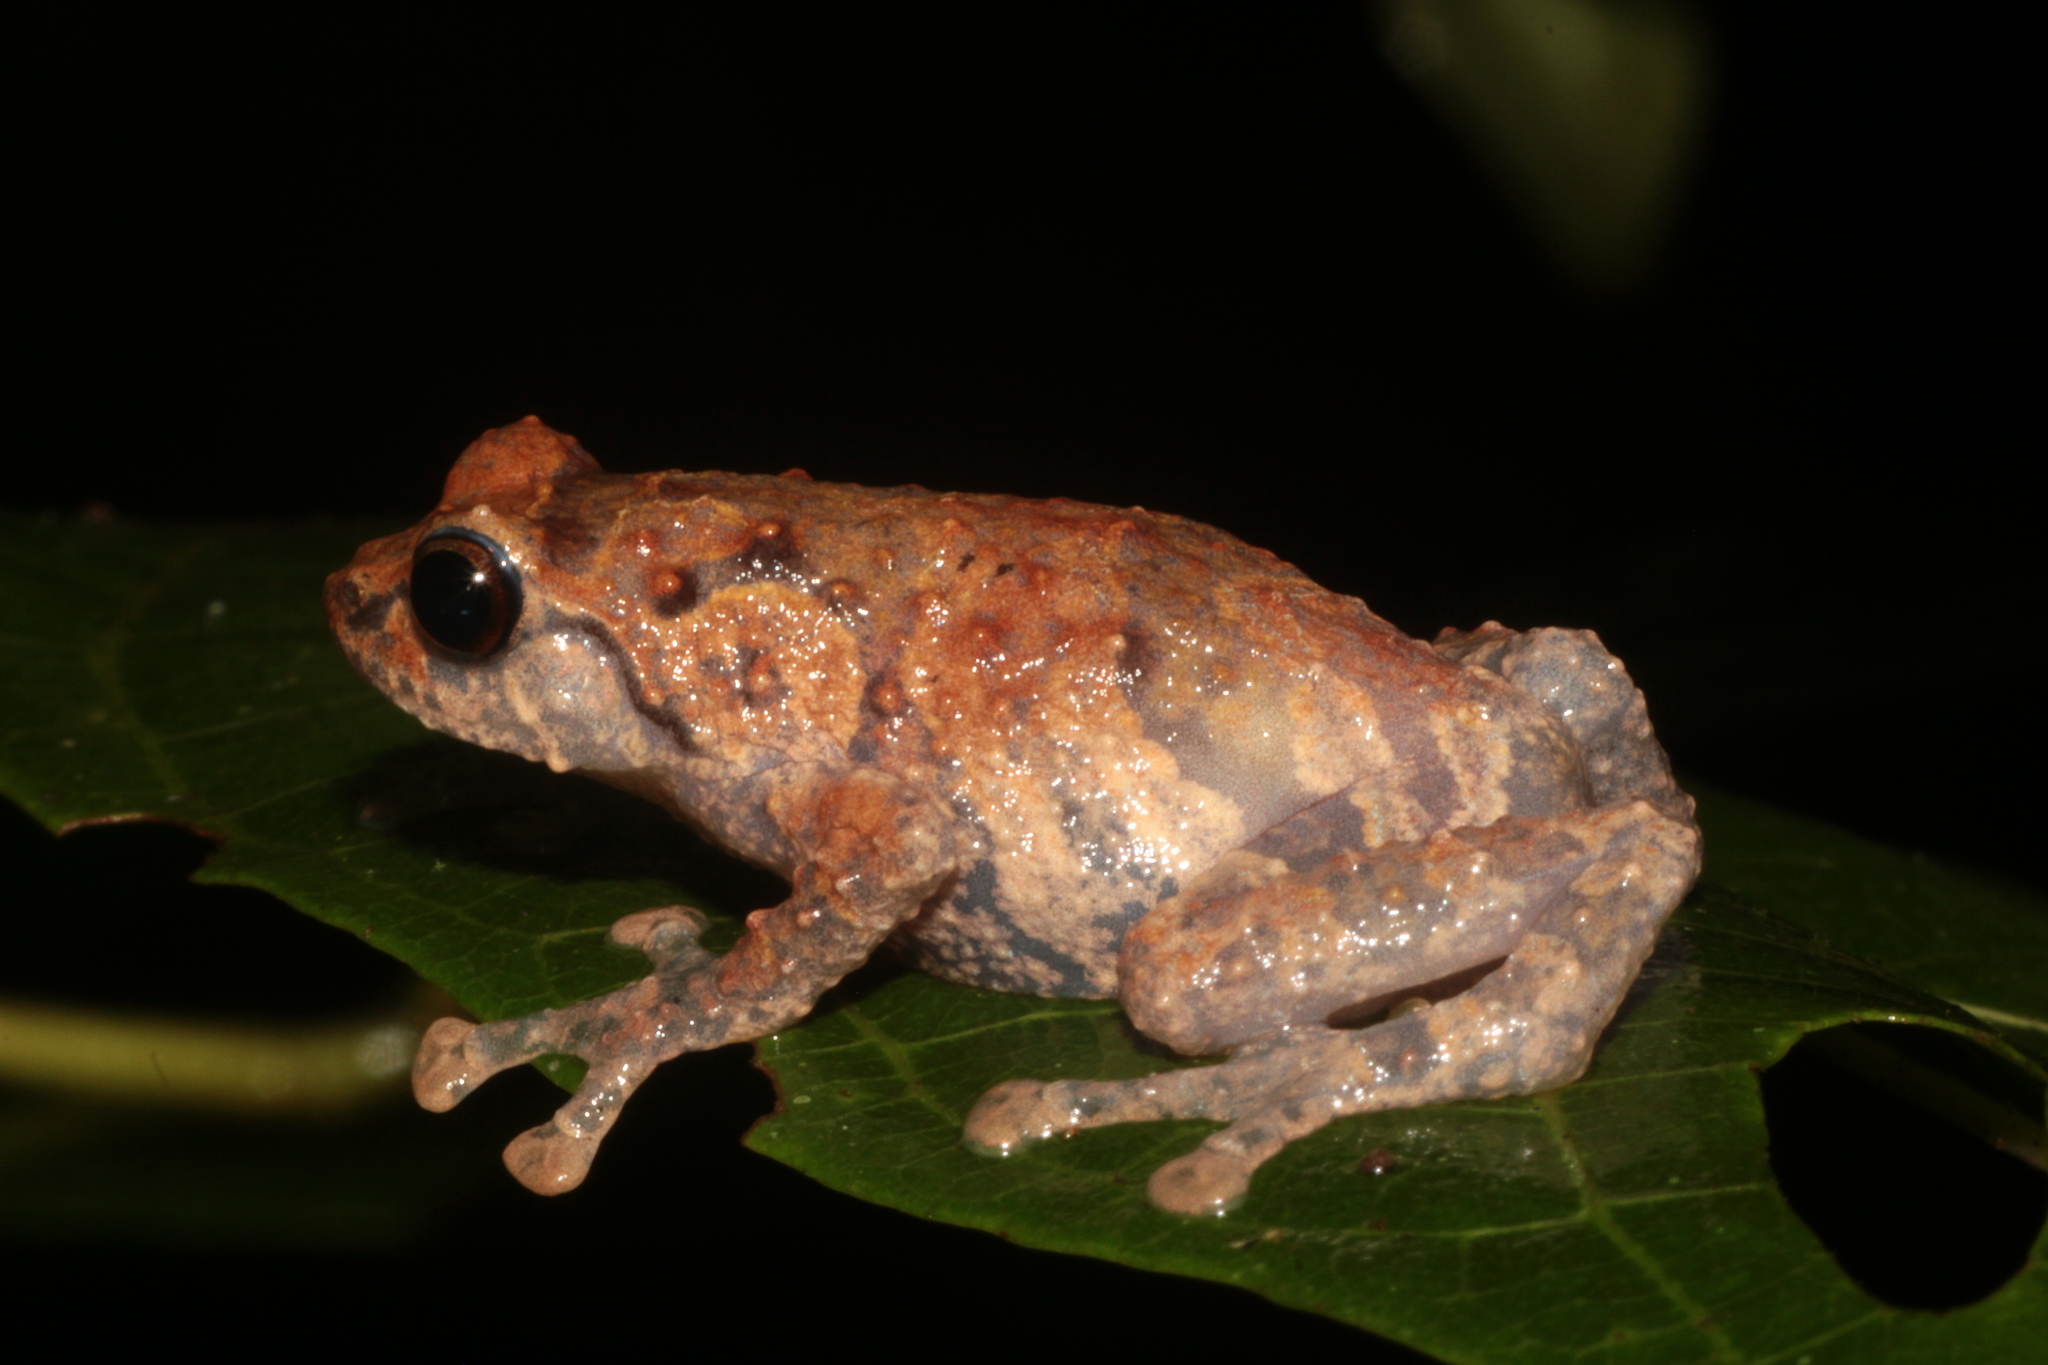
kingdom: Animalia
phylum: Chordata
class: Amphibia
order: Anura
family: Microhylidae
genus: Cophyla
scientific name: Cophyla barbouri
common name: Barbour's giant treefrog
